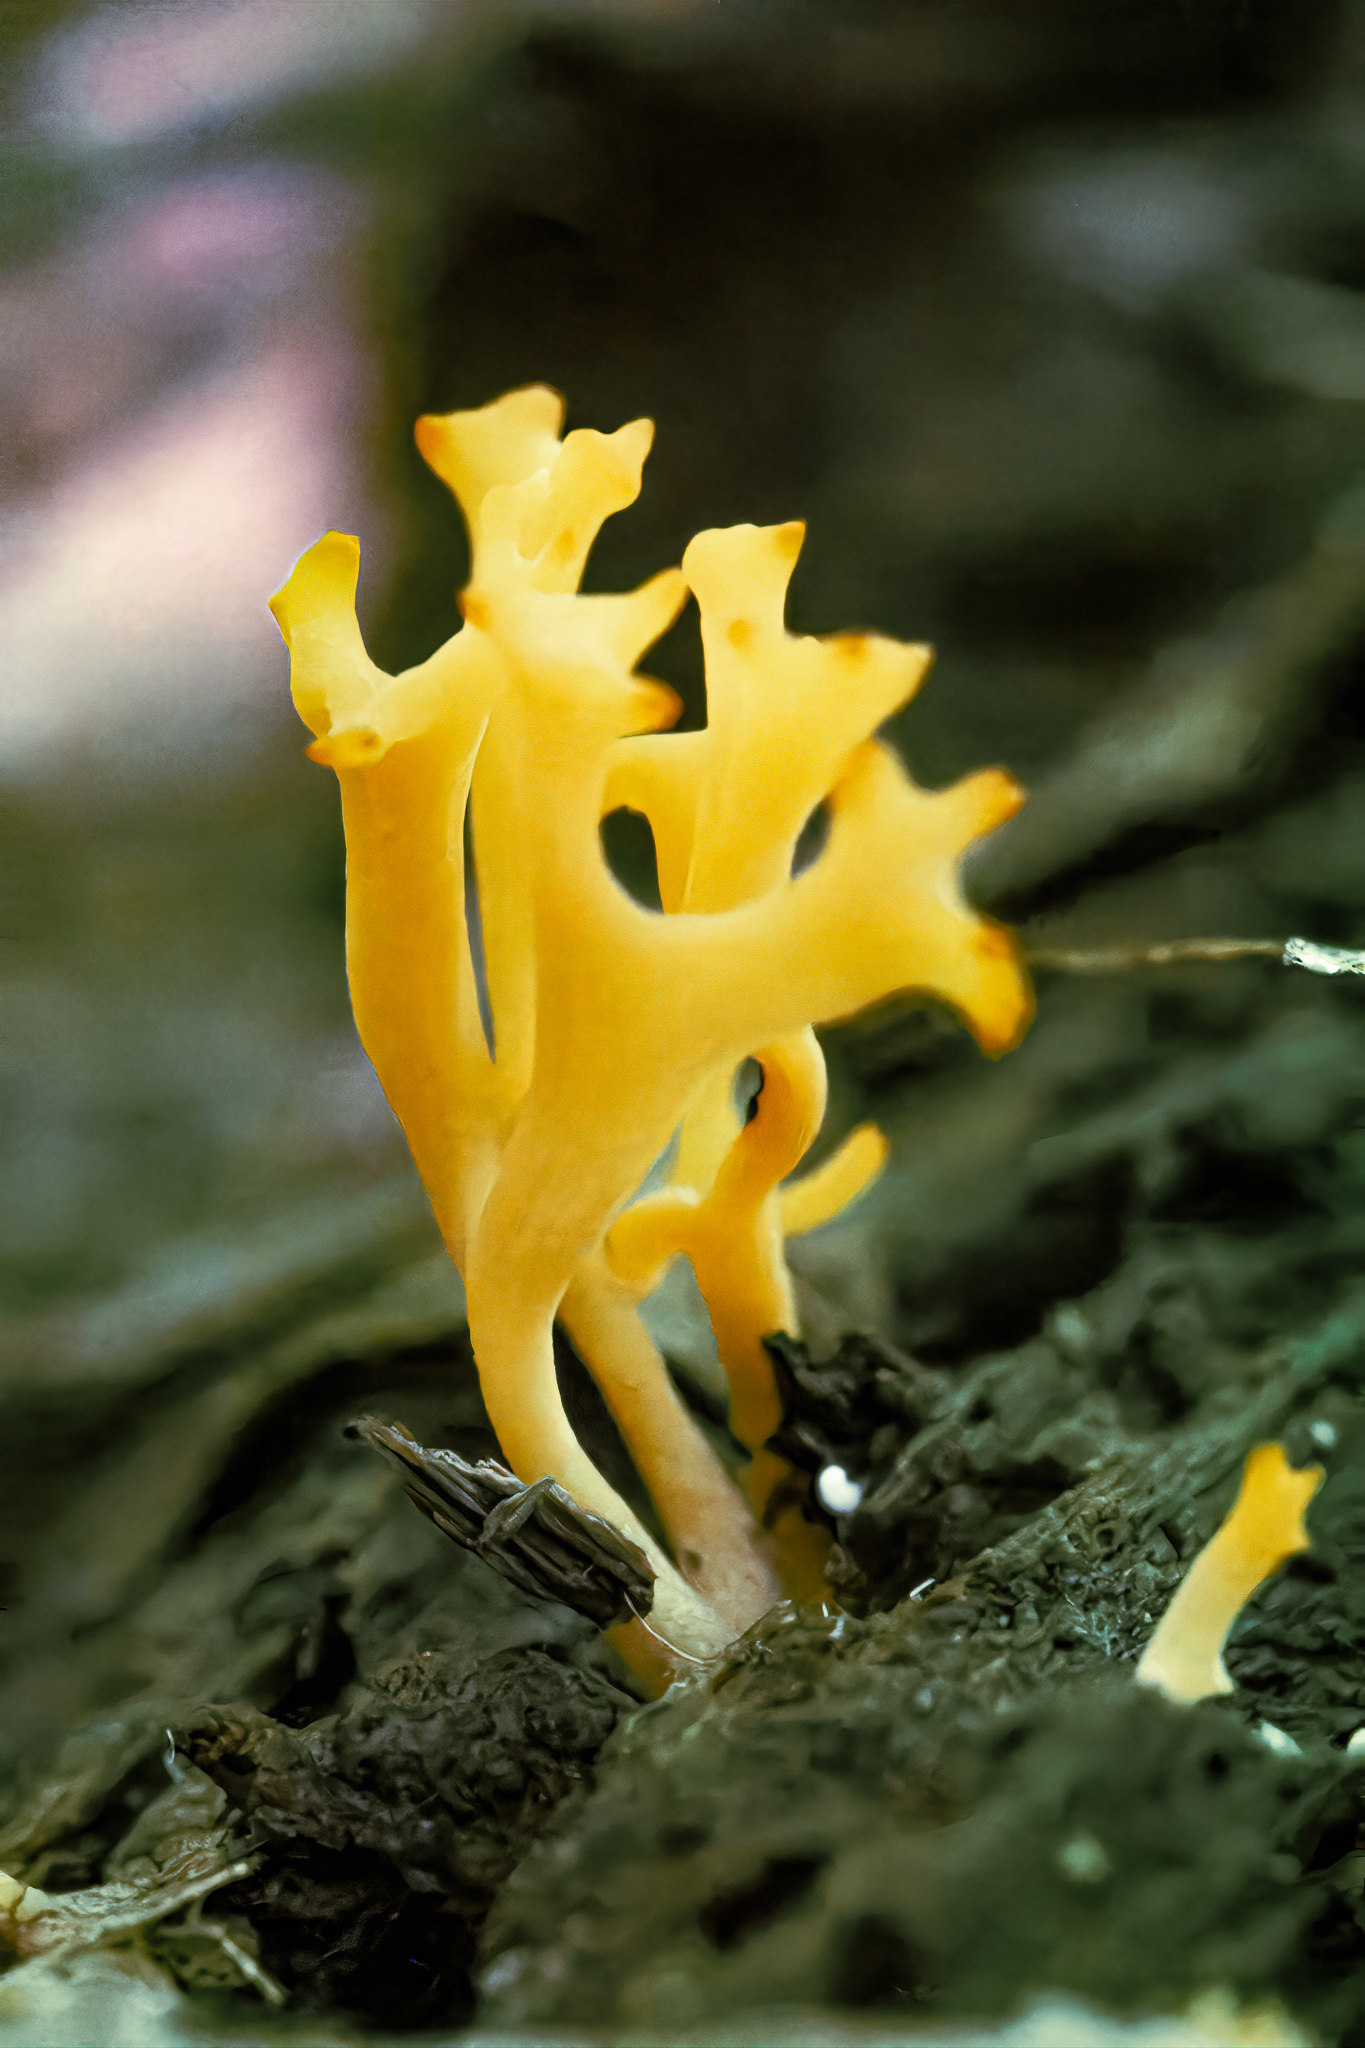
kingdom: Fungi
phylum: Basidiomycota
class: Agaricomycetes
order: Agaricales
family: Clavariaceae
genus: Ramariopsis
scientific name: Ramariopsis crocea
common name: Orange coral
